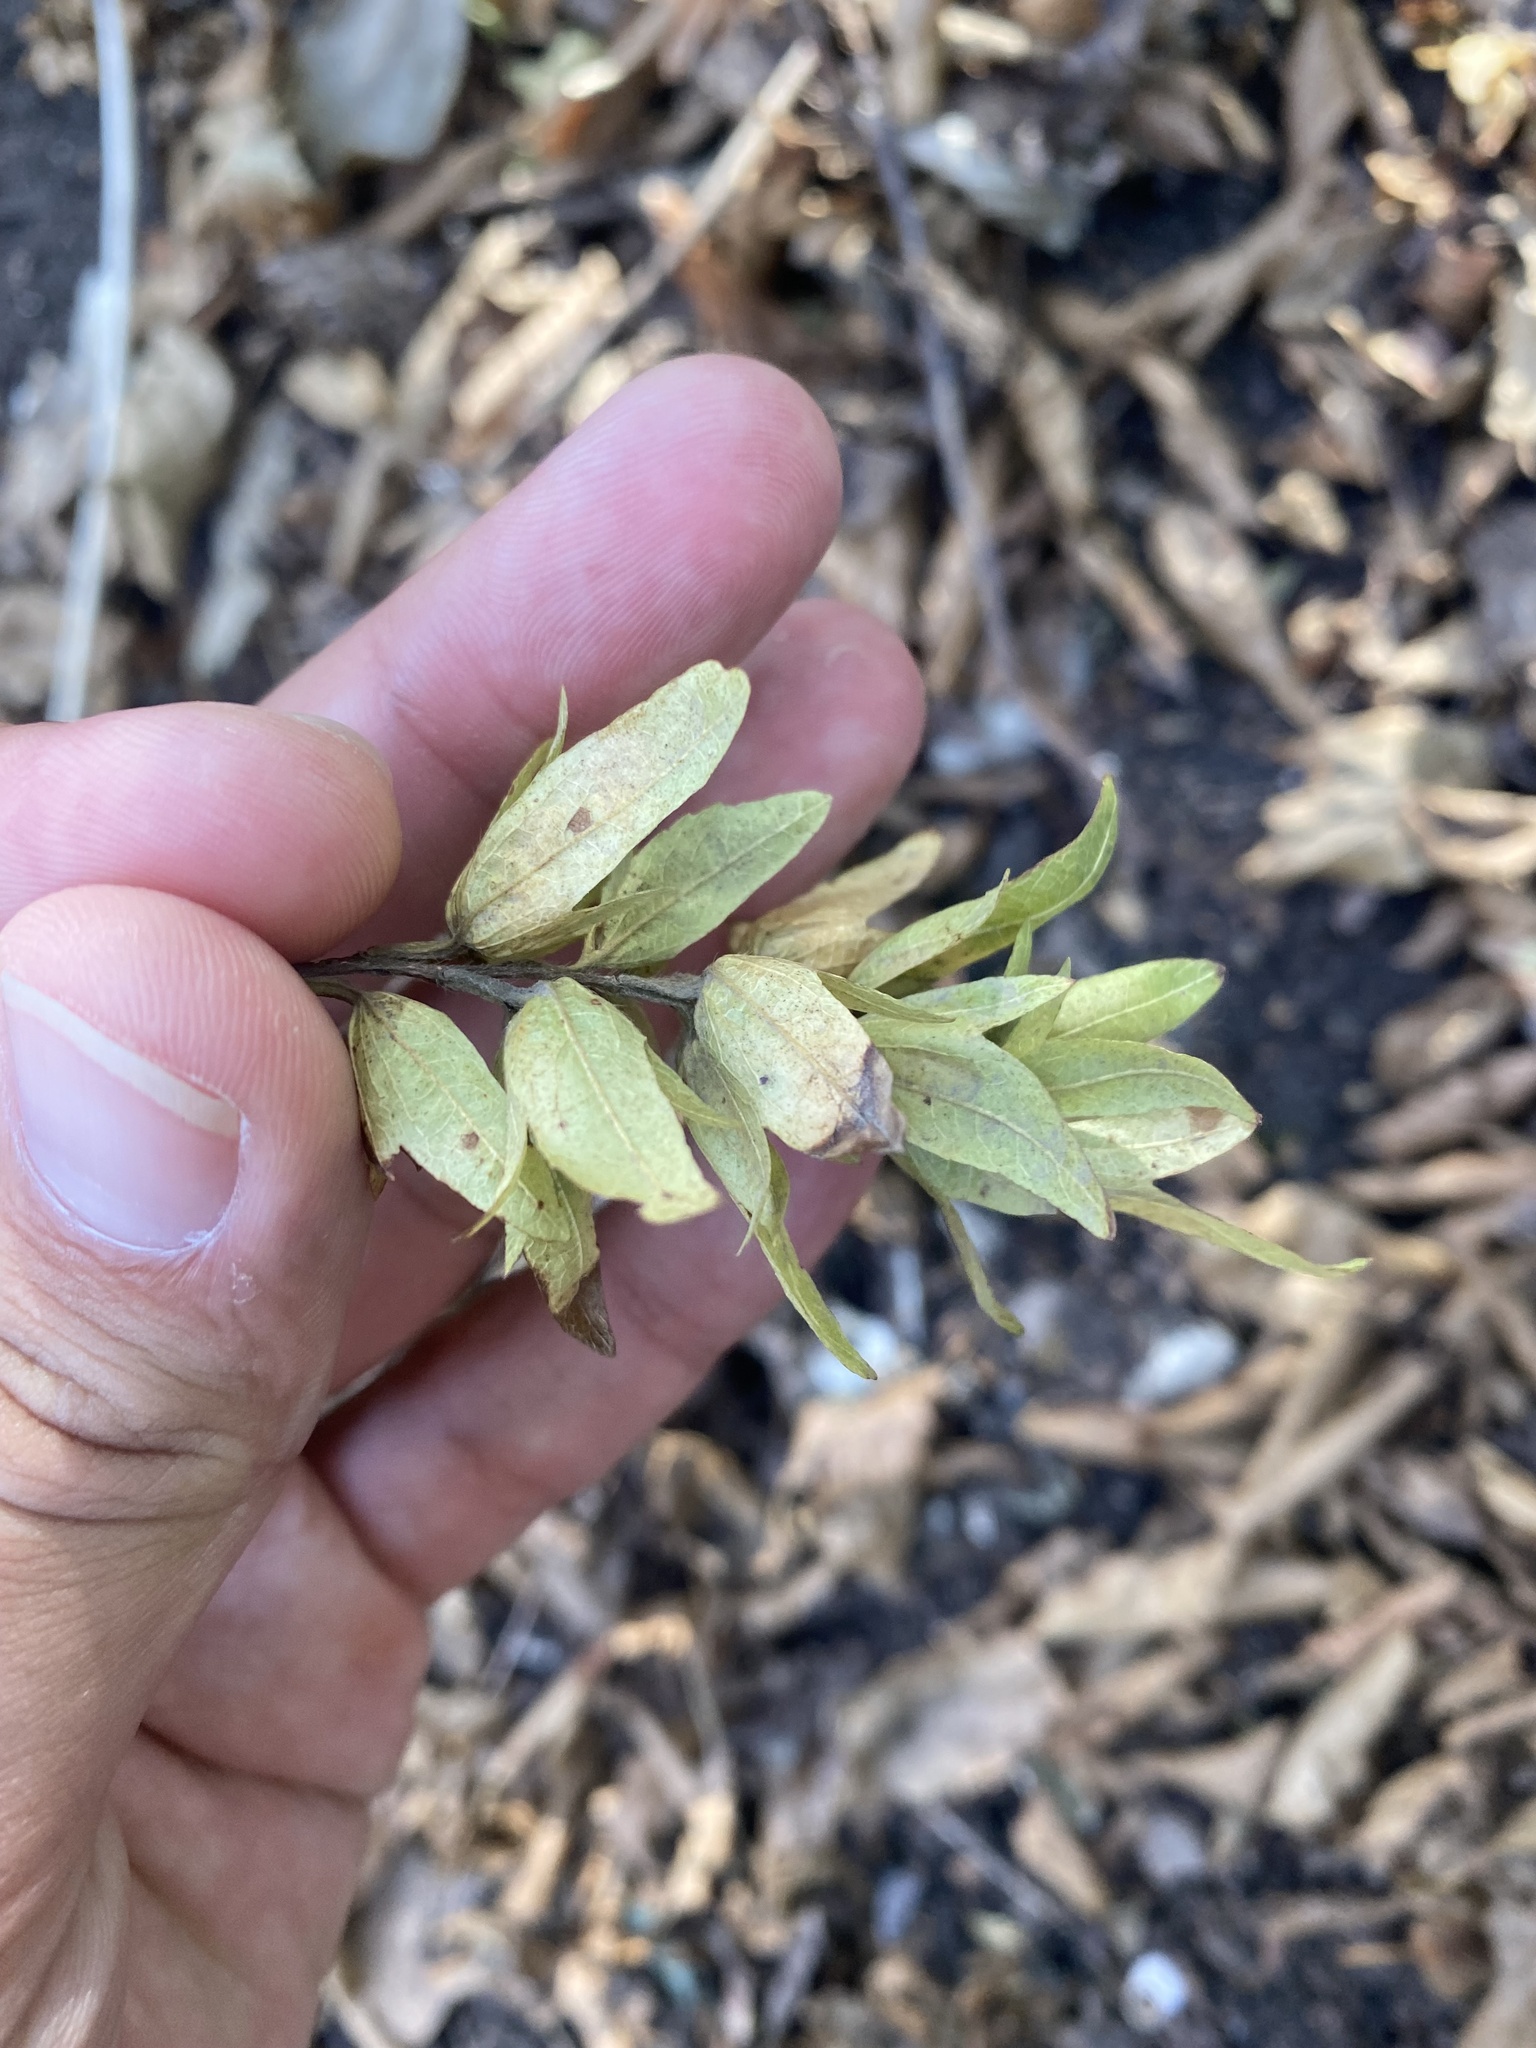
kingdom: Plantae
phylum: Tracheophyta
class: Magnoliopsida
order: Fagales
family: Betulaceae
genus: Carpinus
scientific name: Carpinus betulus
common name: Hornbeam
